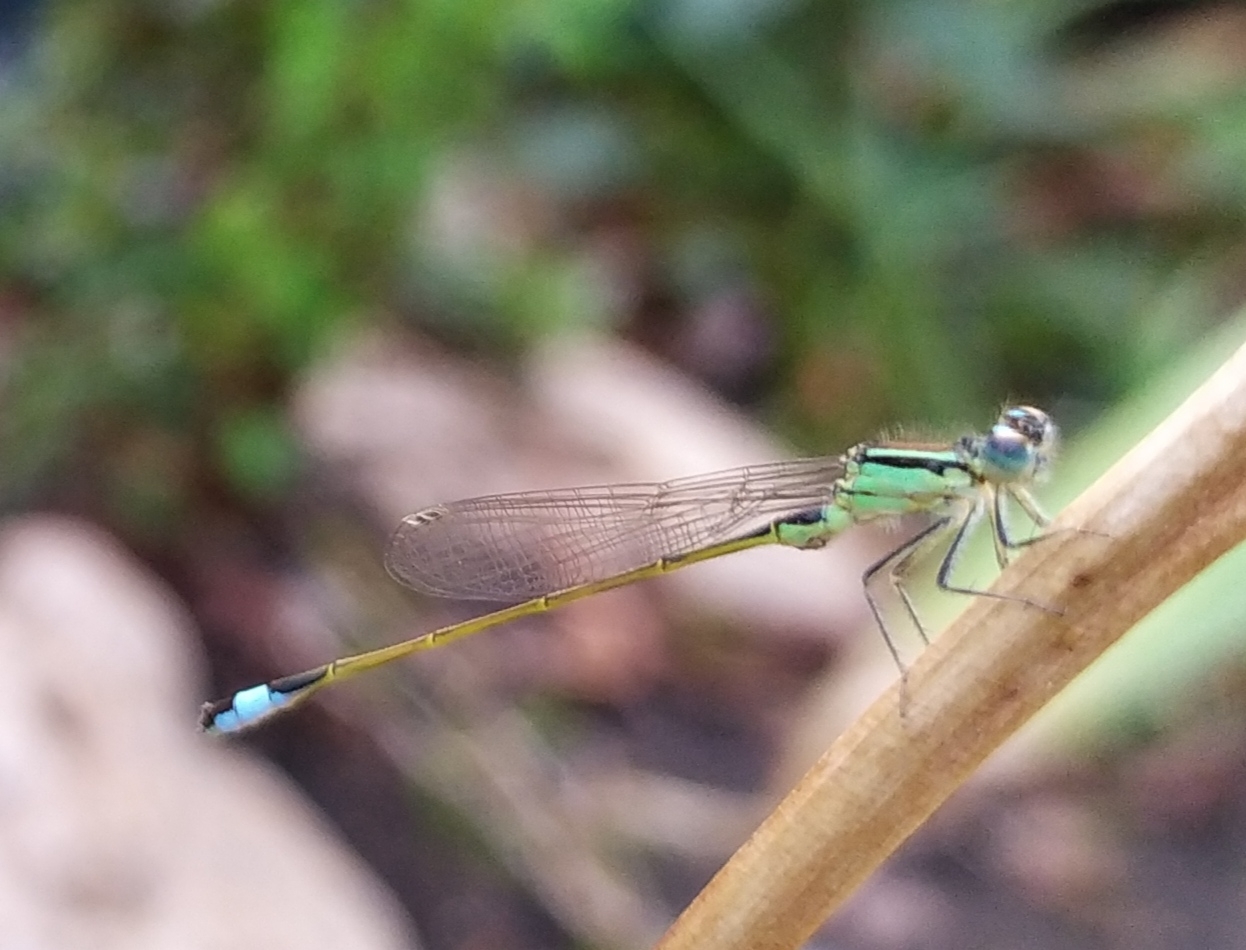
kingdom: Animalia
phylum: Arthropoda
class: Insecta
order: Odonata
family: Coenagrionidae
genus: Ischnura
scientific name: Ischnura elegans
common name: Blue-tailed damselfly
